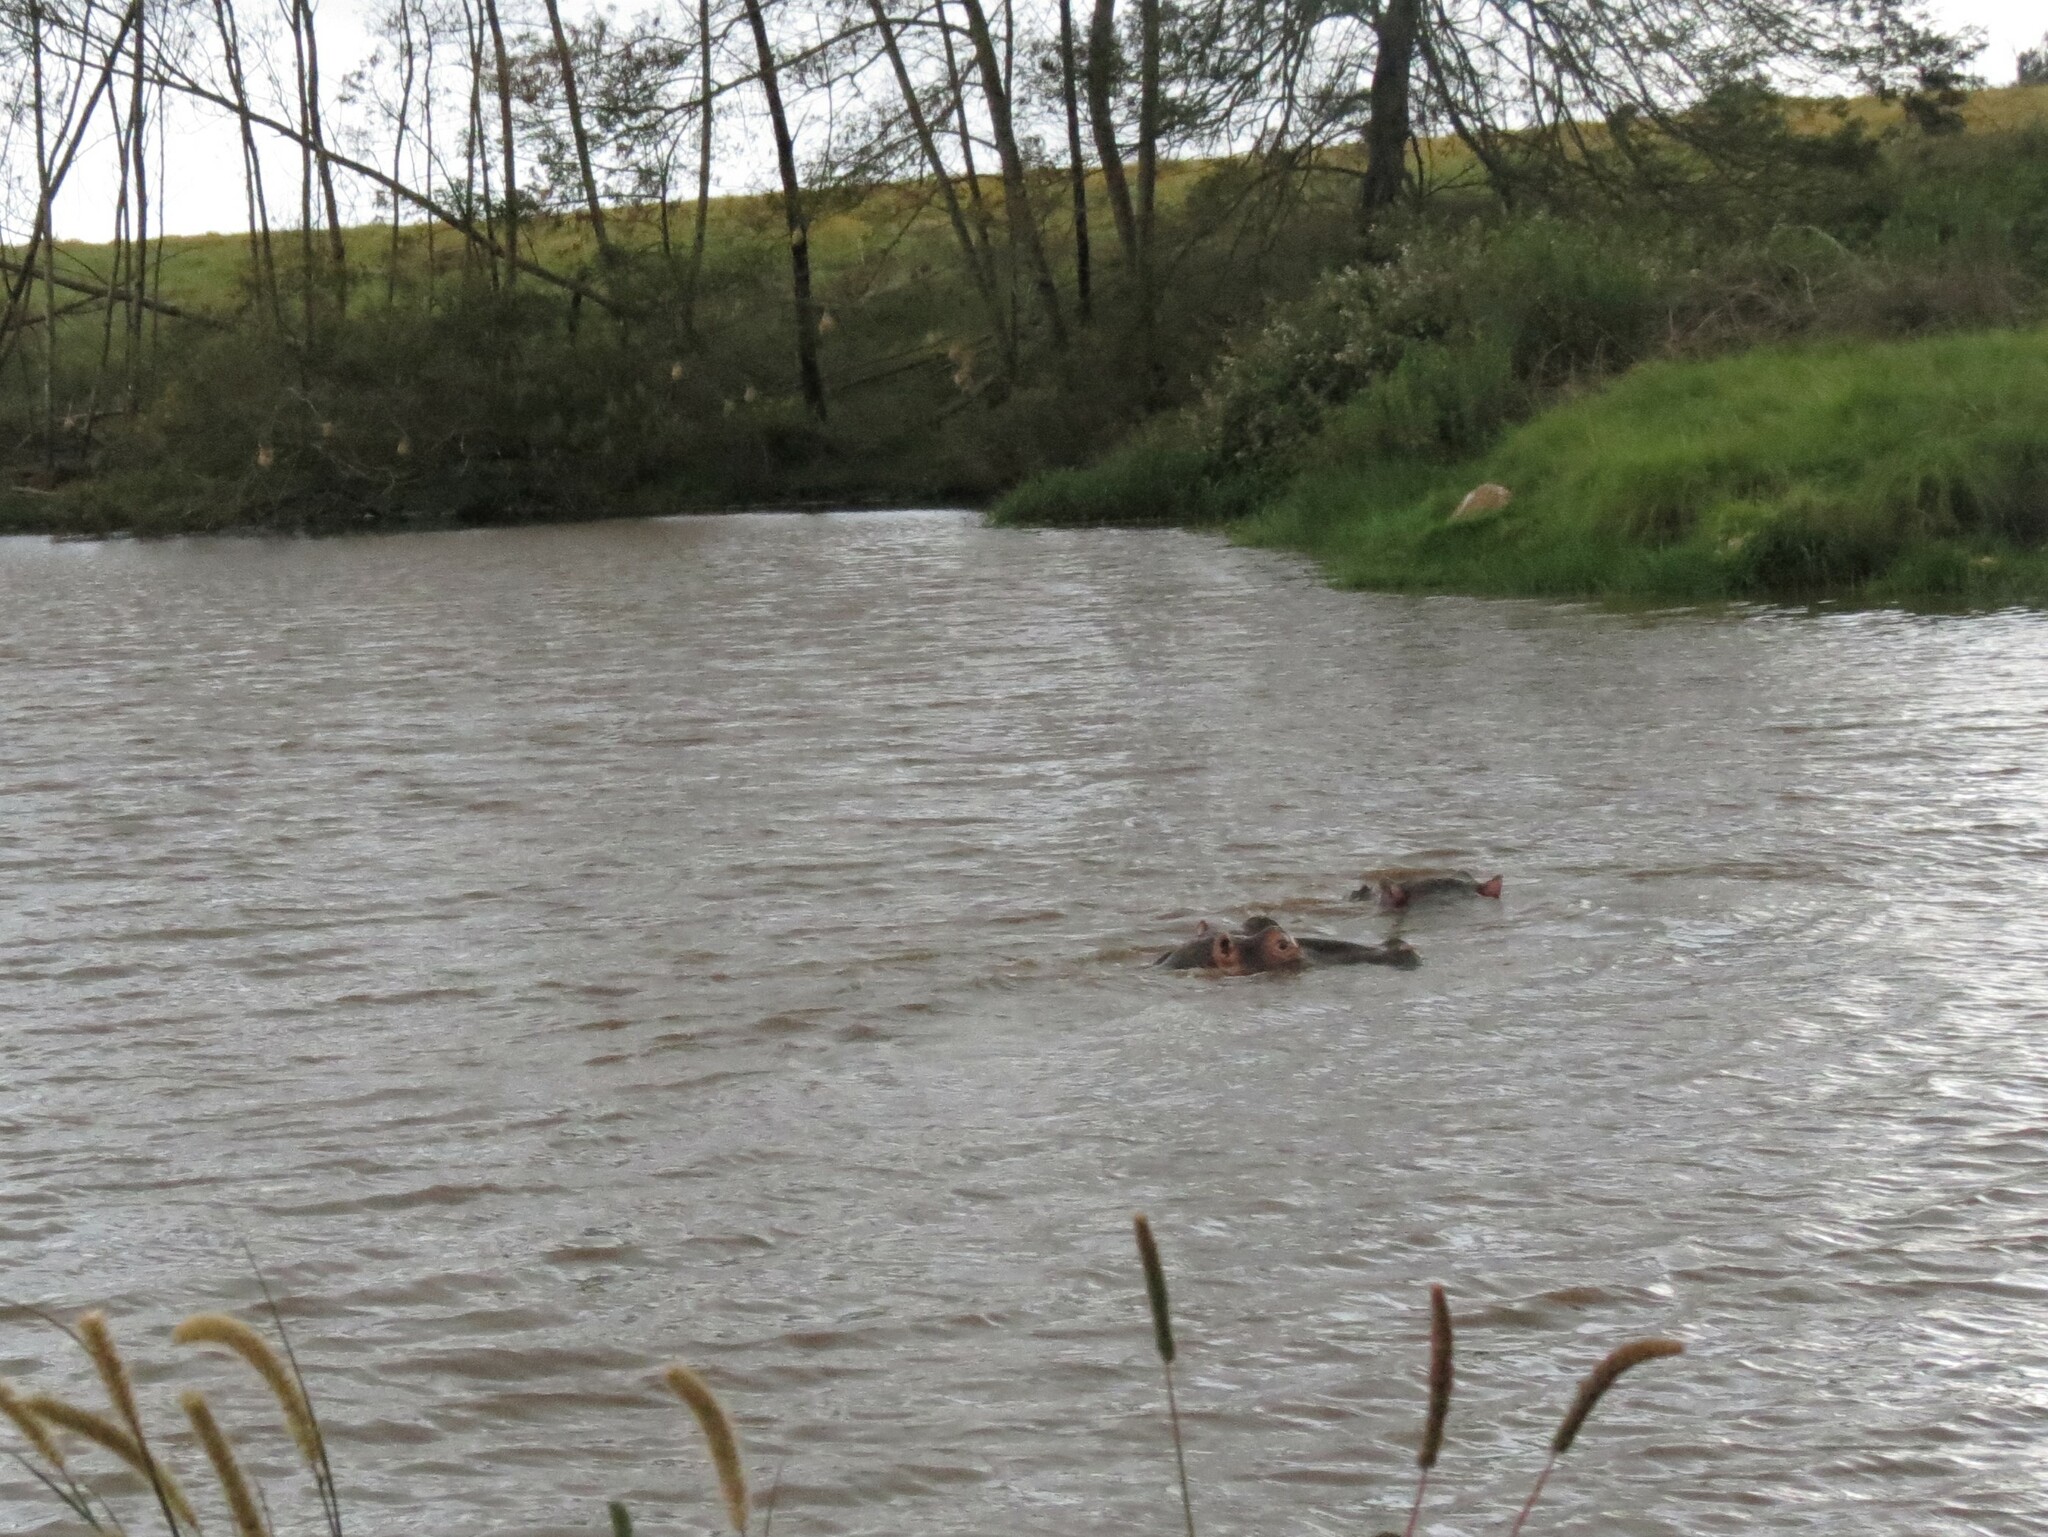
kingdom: Animalia
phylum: Chordata
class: Mammalia
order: Artiodactyla
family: Hippopotamidae
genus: Hippopotamus
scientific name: Hippopotamus amphibius
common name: Common hippopotamus
